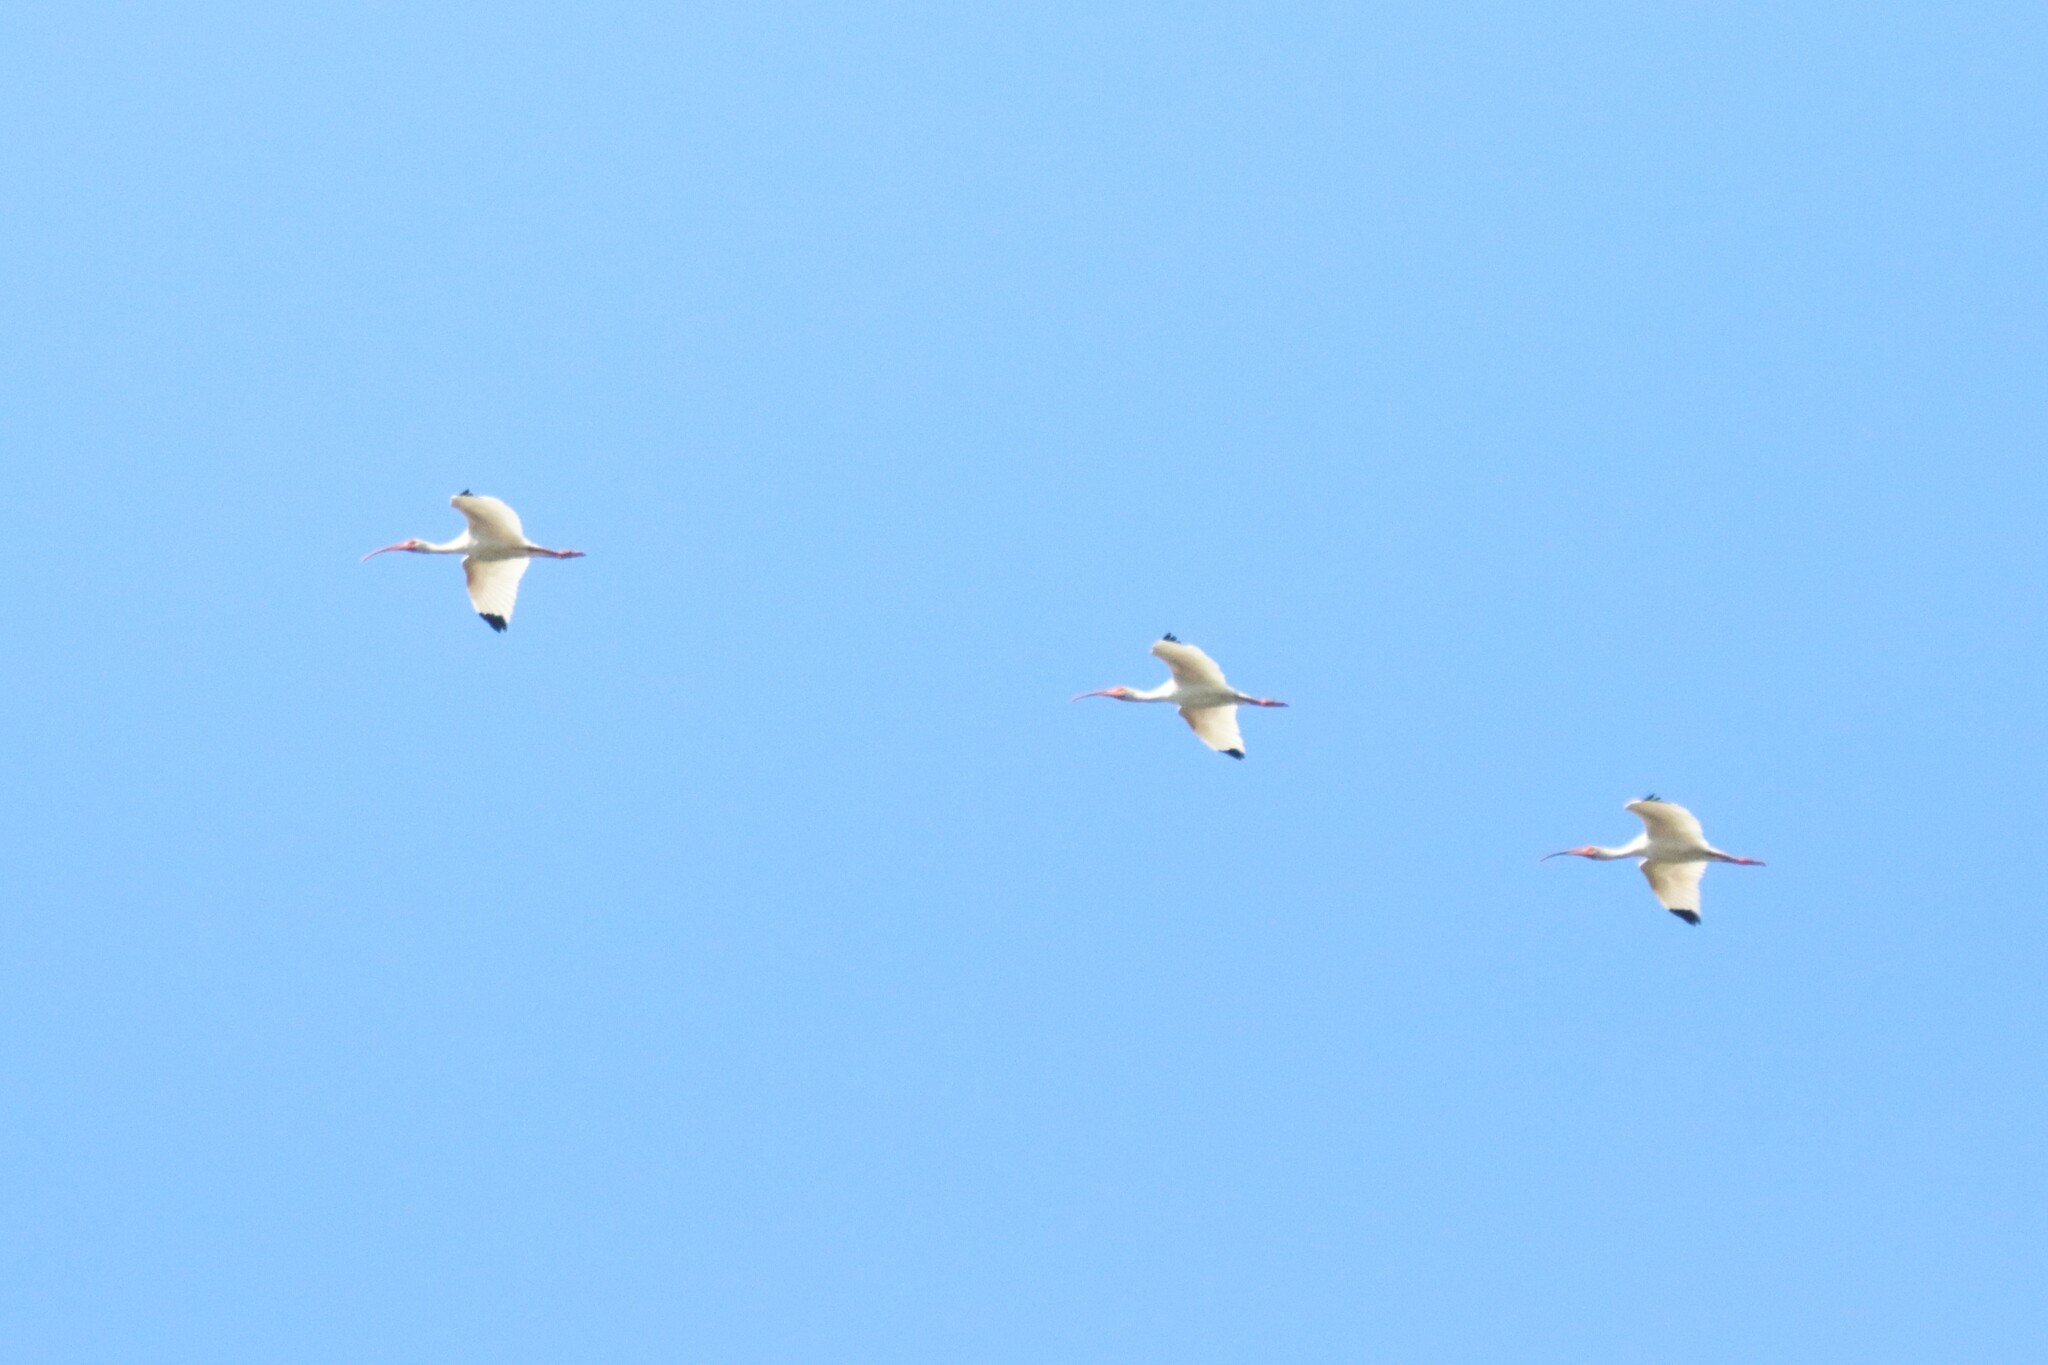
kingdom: Animalia
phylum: Chordata
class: Aves
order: Pelecaniformes
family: Threskiornithidae
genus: Eudocimus
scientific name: Eudocimus albus
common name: White ibis
